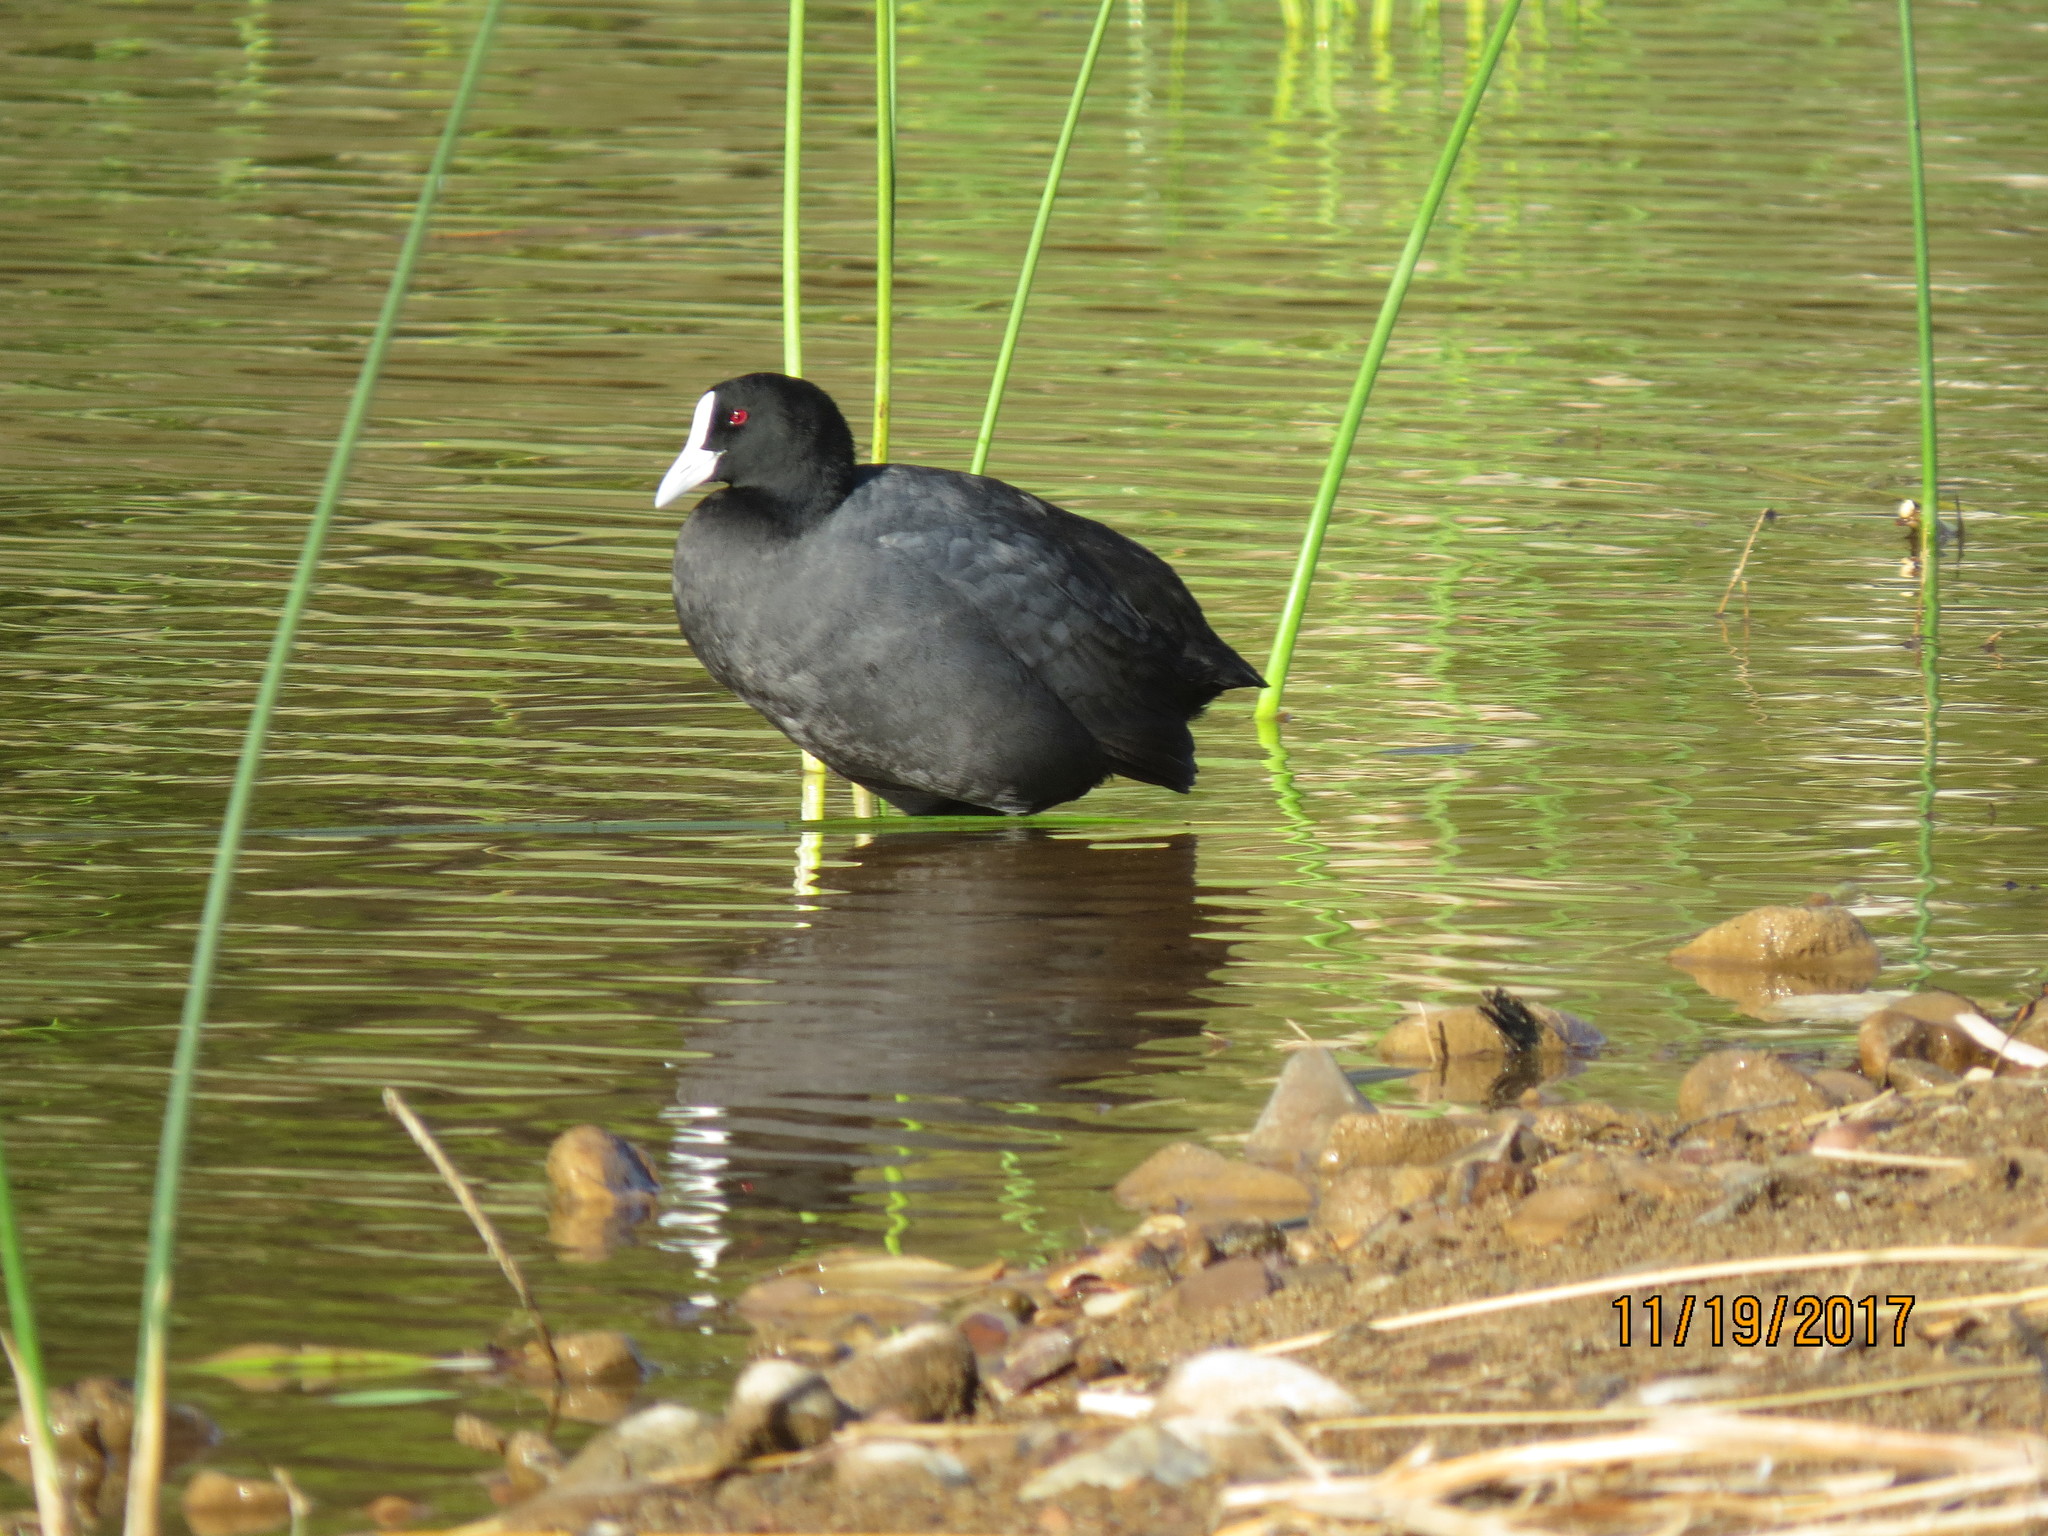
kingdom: Animalia
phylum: Chordata
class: Aves
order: Gruiformes
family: Rallidae
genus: Fulica
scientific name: Fulica atra
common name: Eurasian coot
